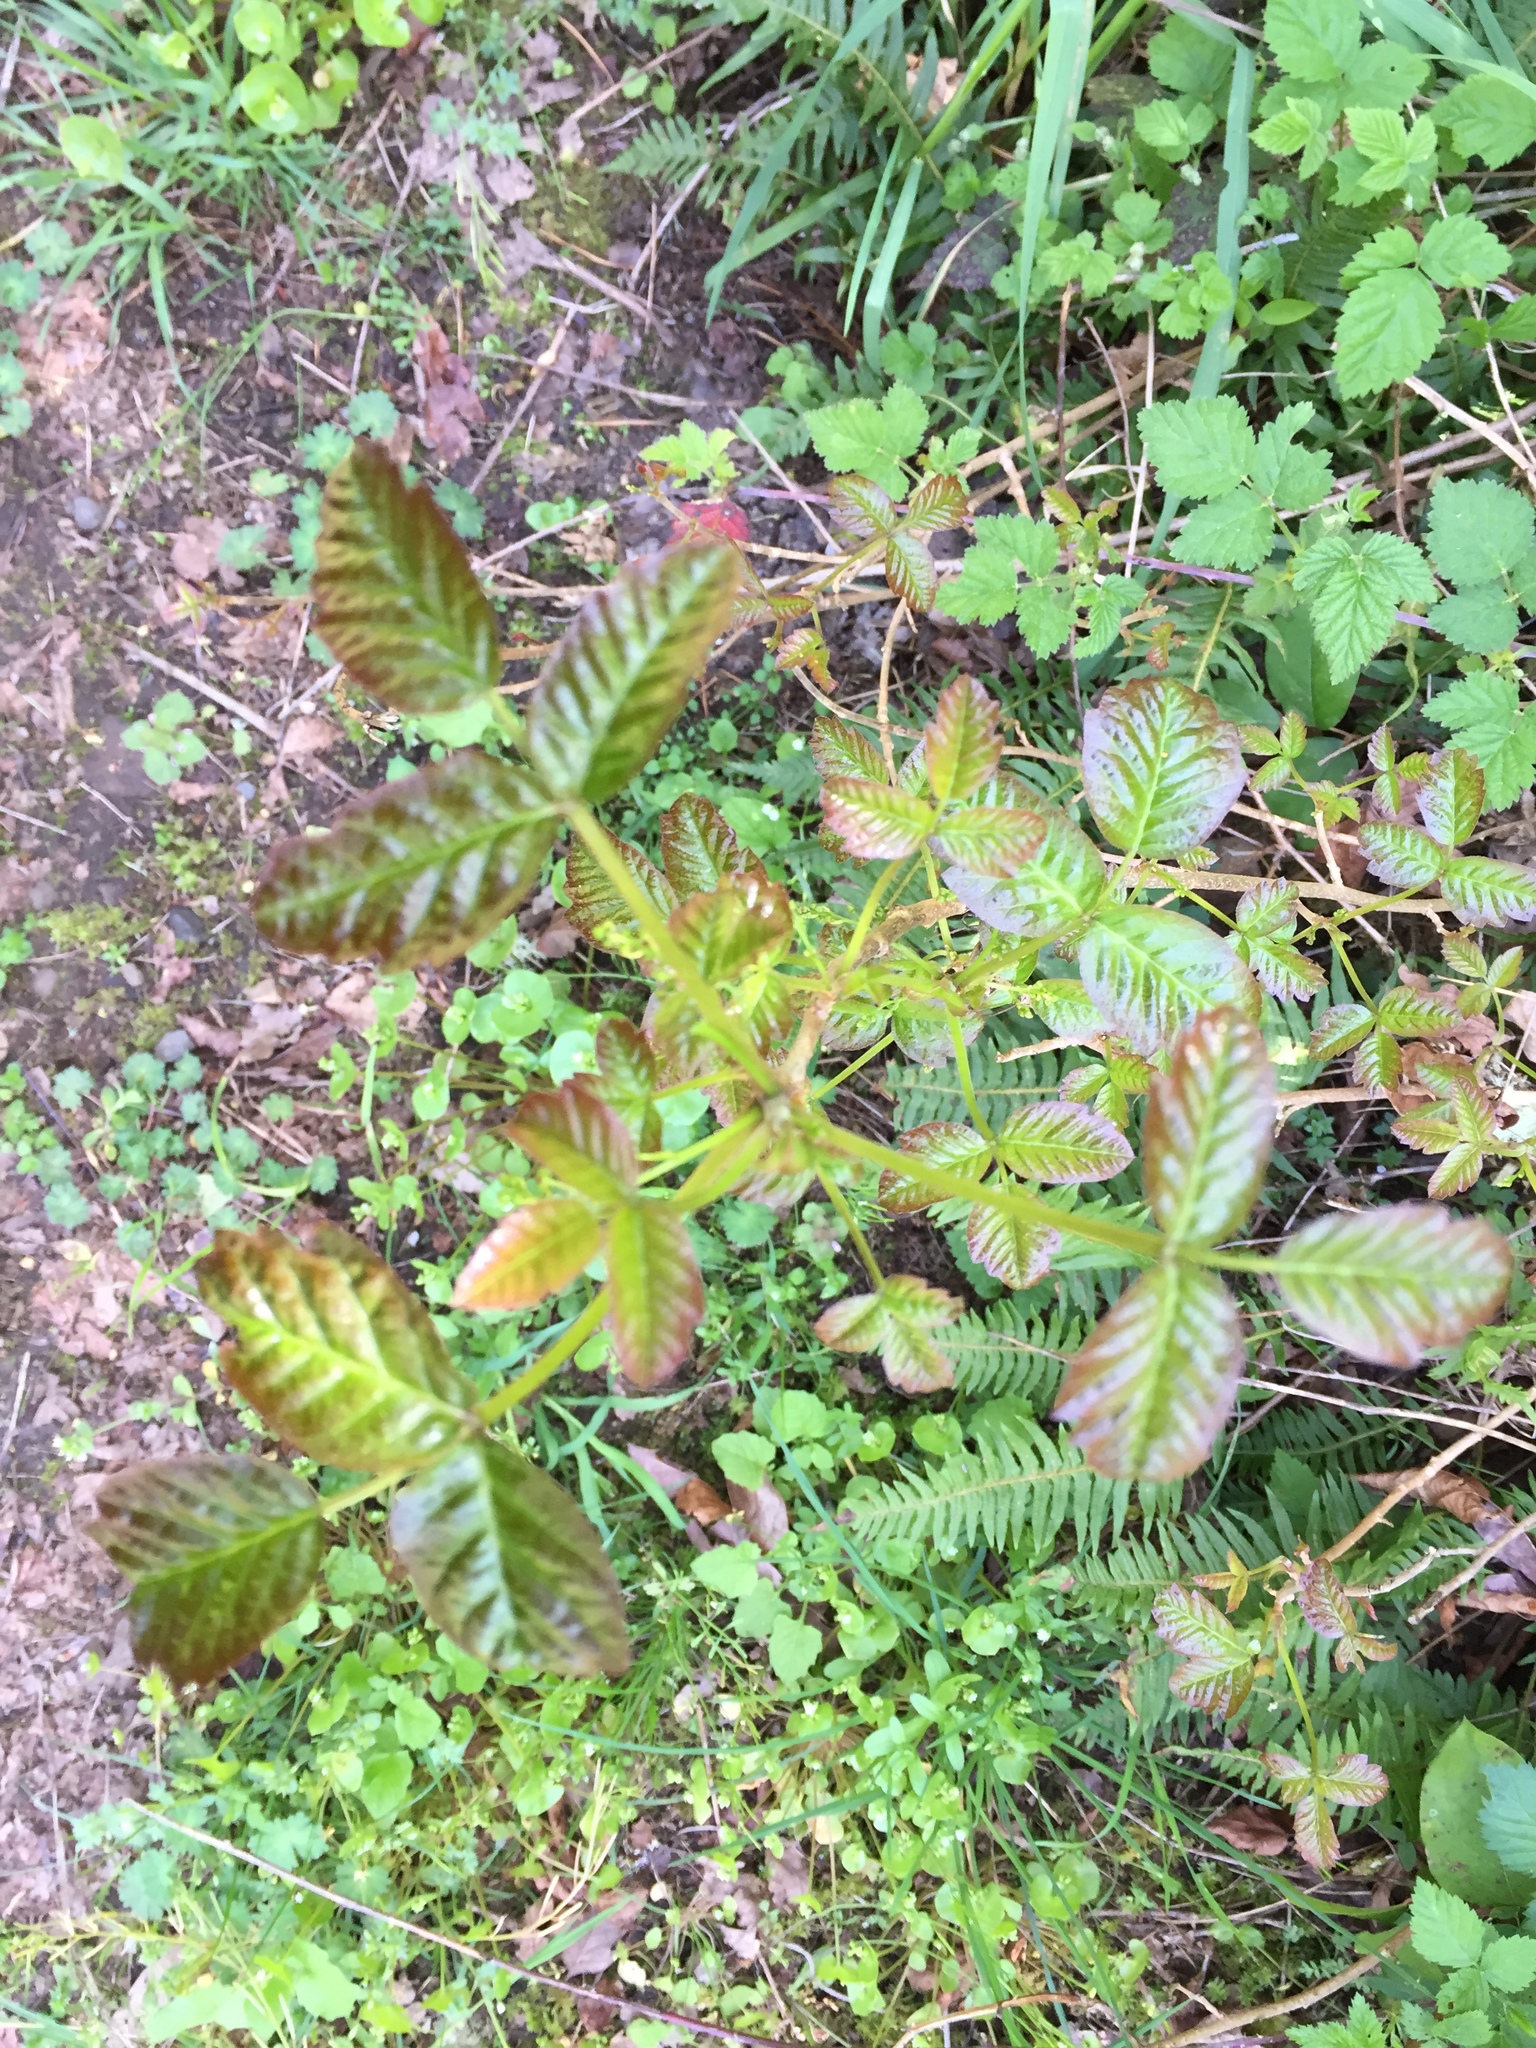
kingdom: Plantae
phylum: Tracheophyta
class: Magnoliopsida
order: Sapindales
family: Anacardiaceae
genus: Toxicodendron
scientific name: Toxicodendron diversilobum
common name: Pacific poison-oak
